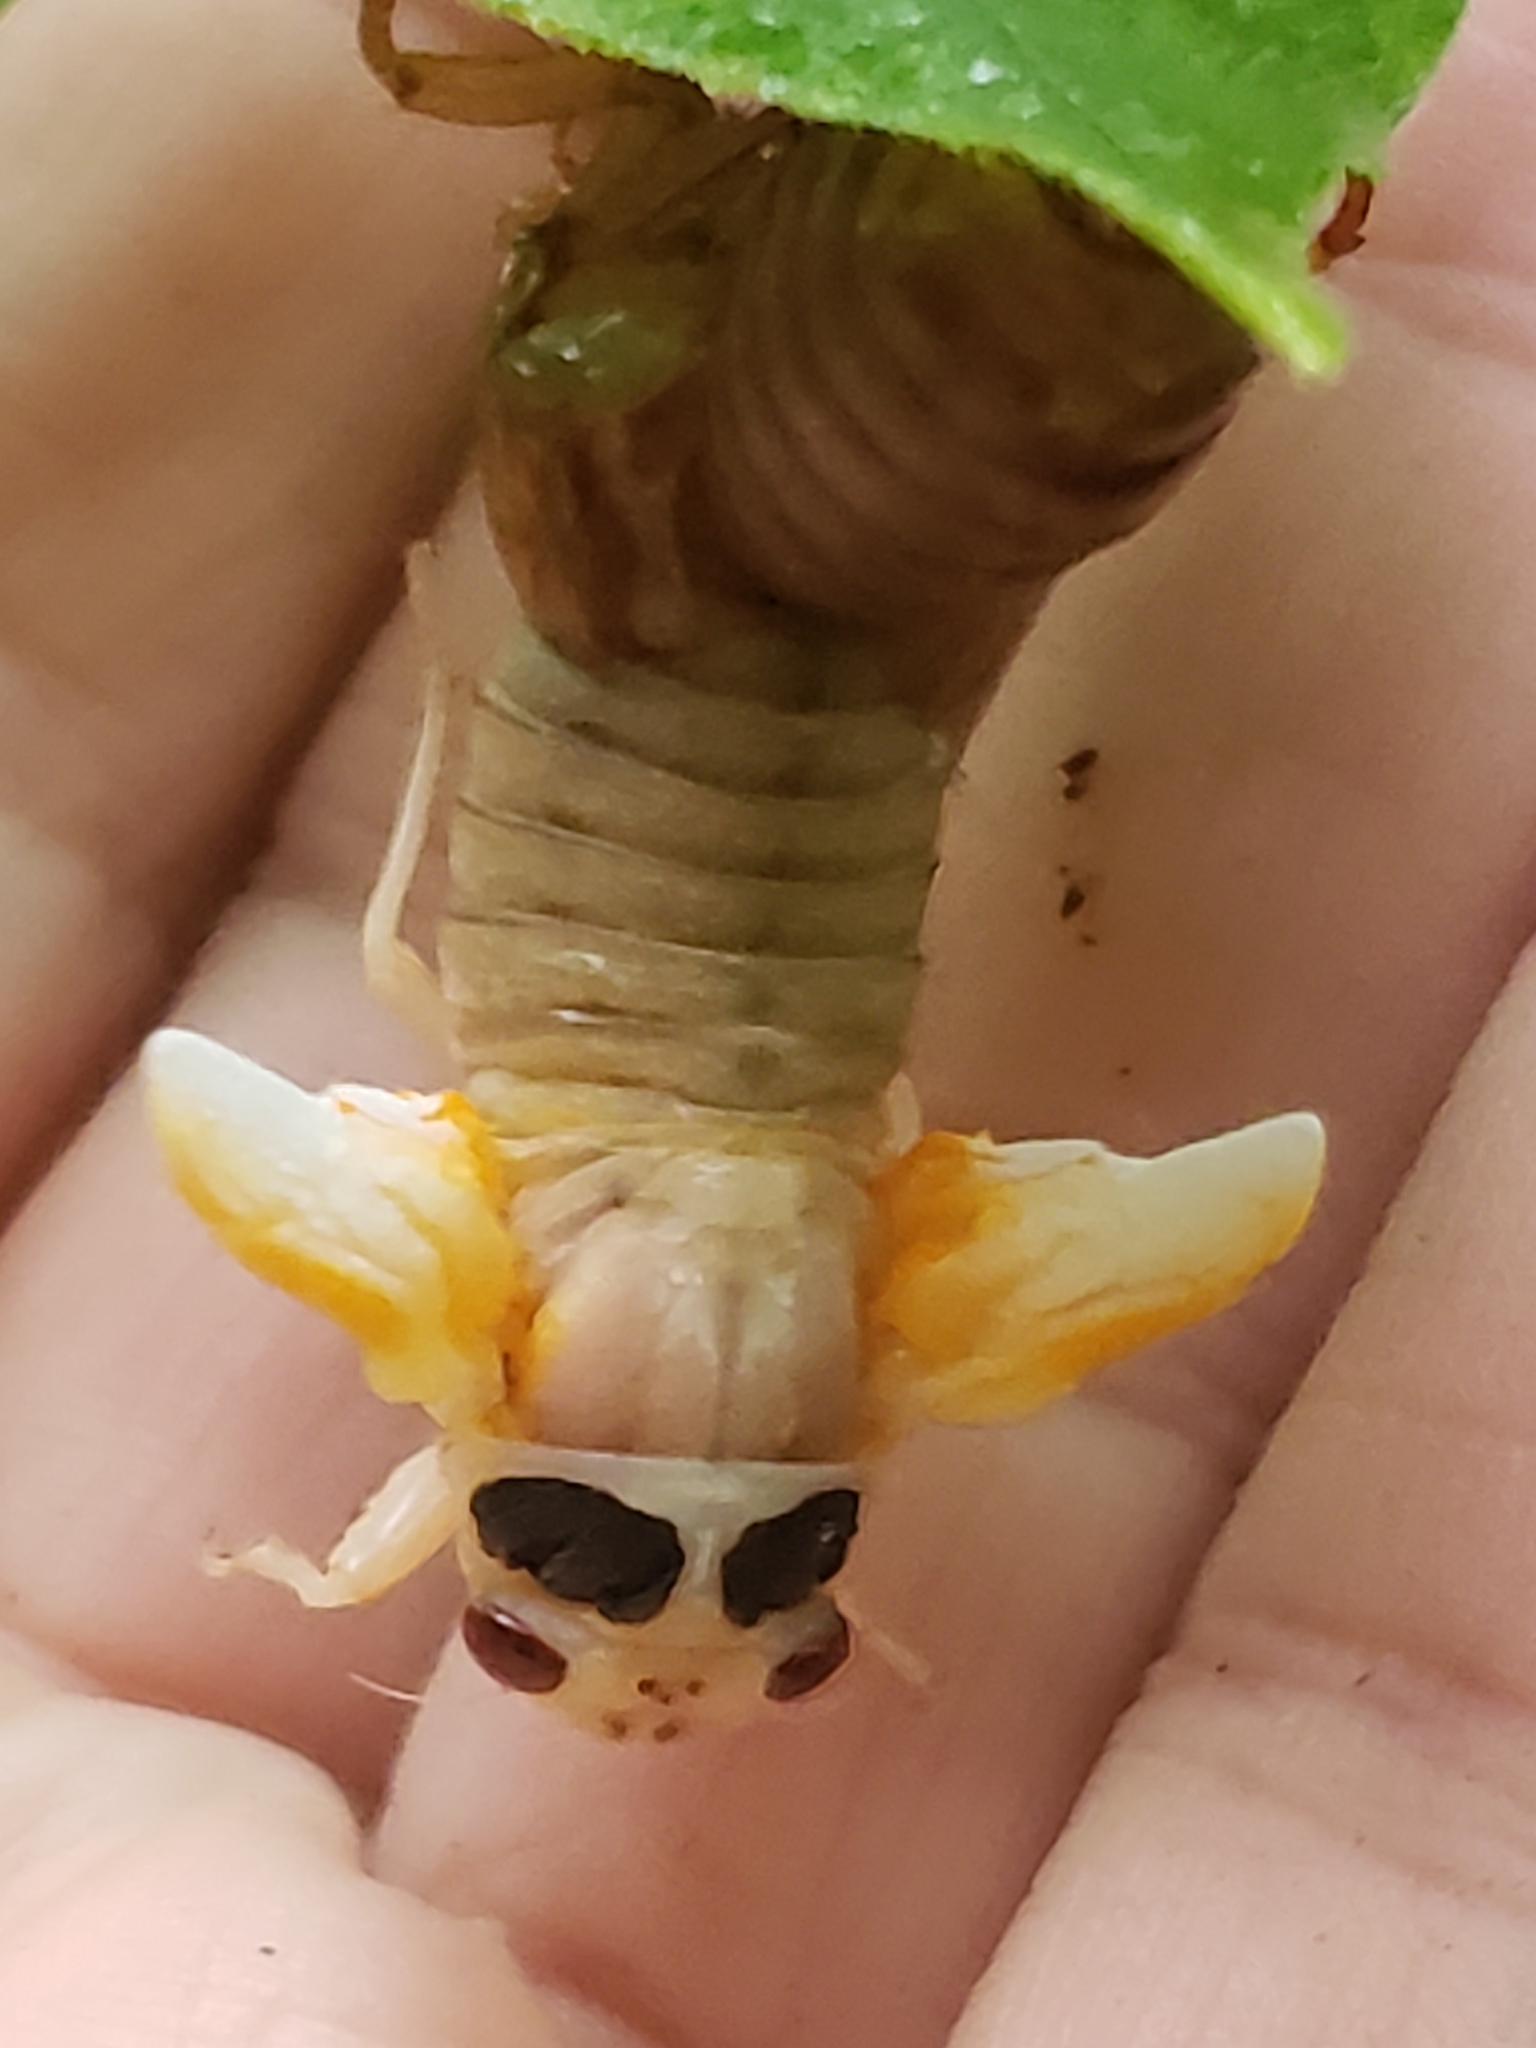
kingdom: Animalia
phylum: Arthropoda
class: Insecta
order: Hemiptera
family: Cicadidae
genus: Magicicada
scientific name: Magicicada
